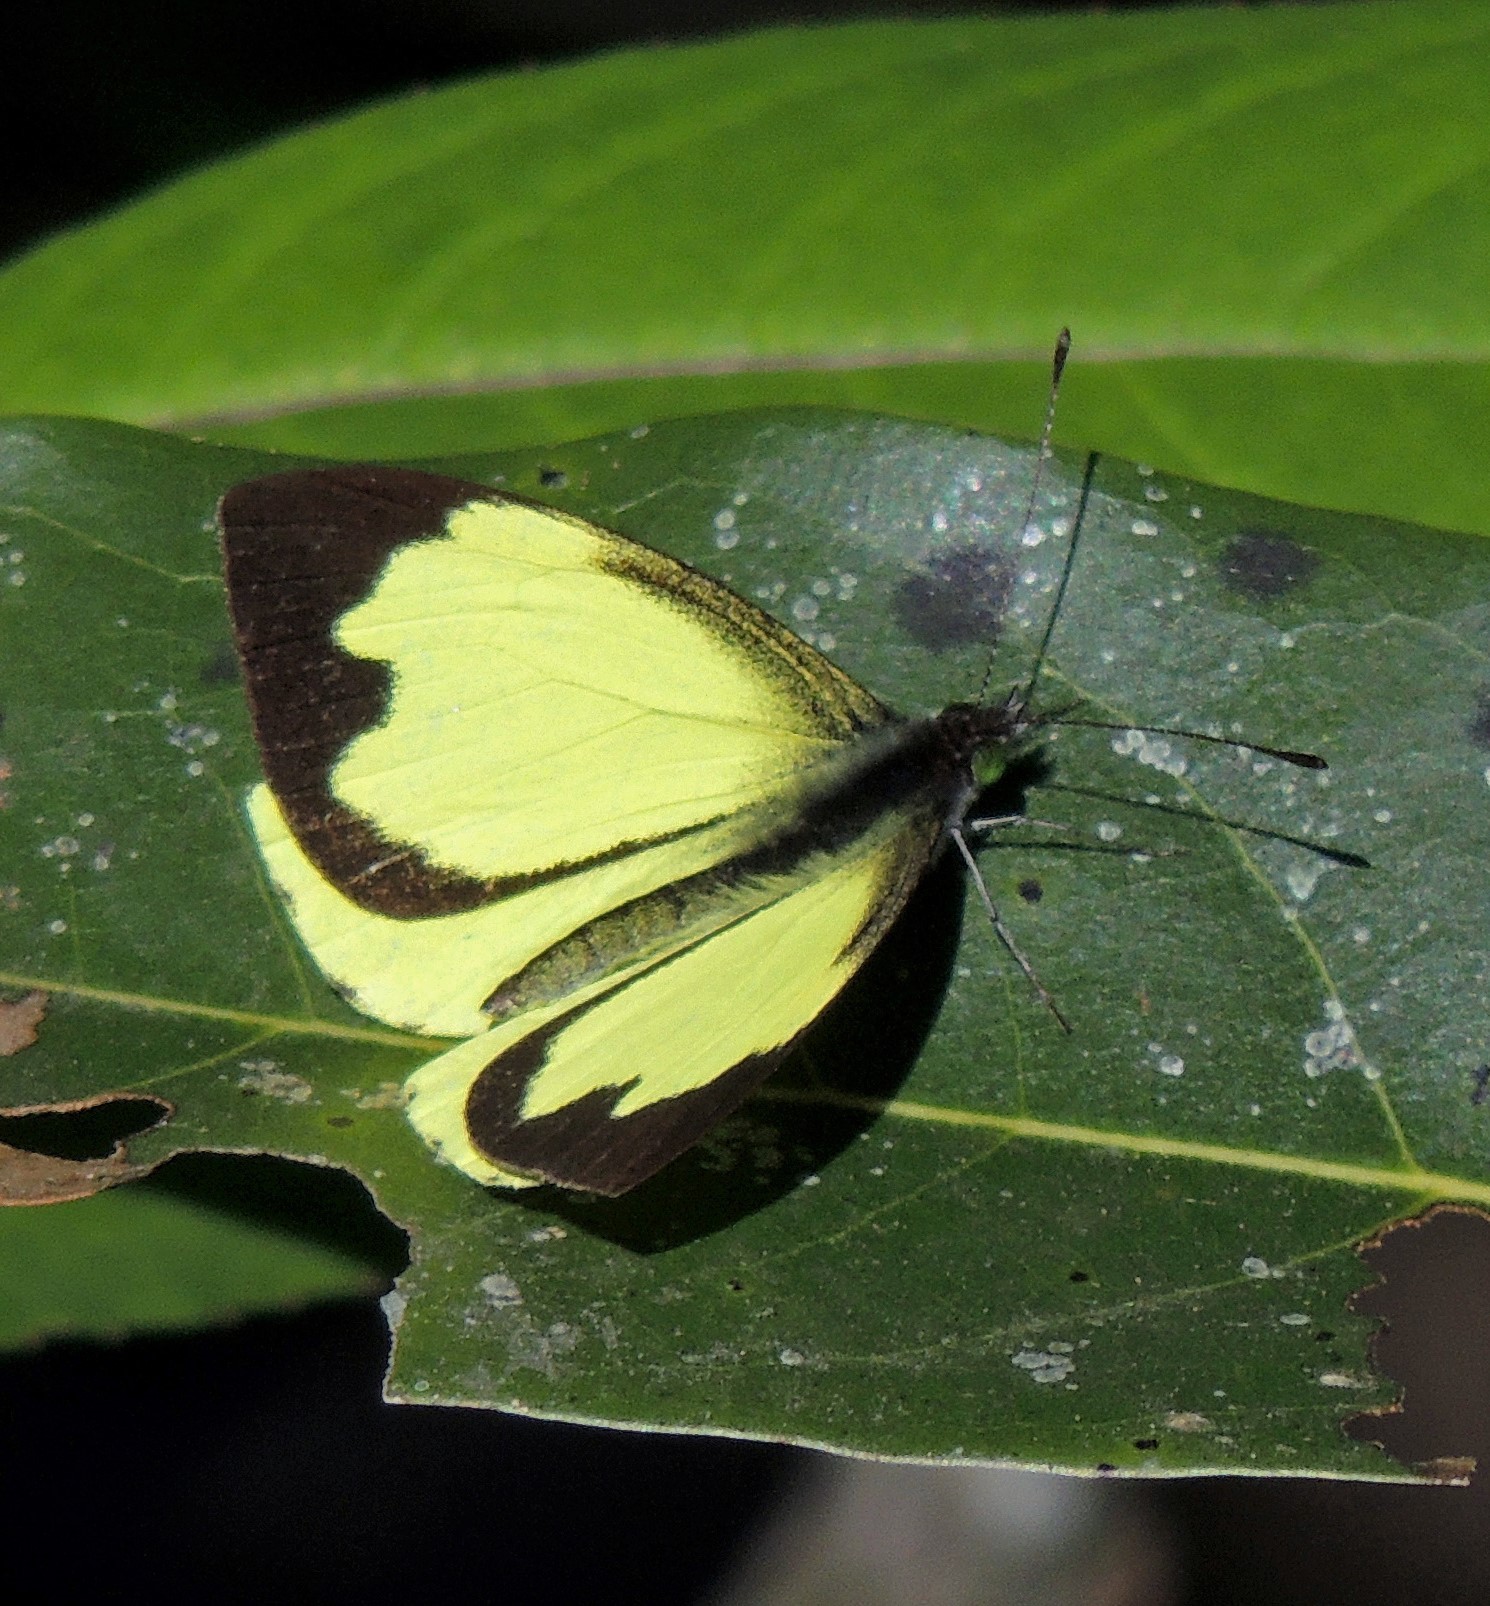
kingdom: Animalia
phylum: Arthropoda
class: Insecta
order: Lepidoptera
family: Pieridae
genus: Leptophobia
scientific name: Leptophobia diaguita
